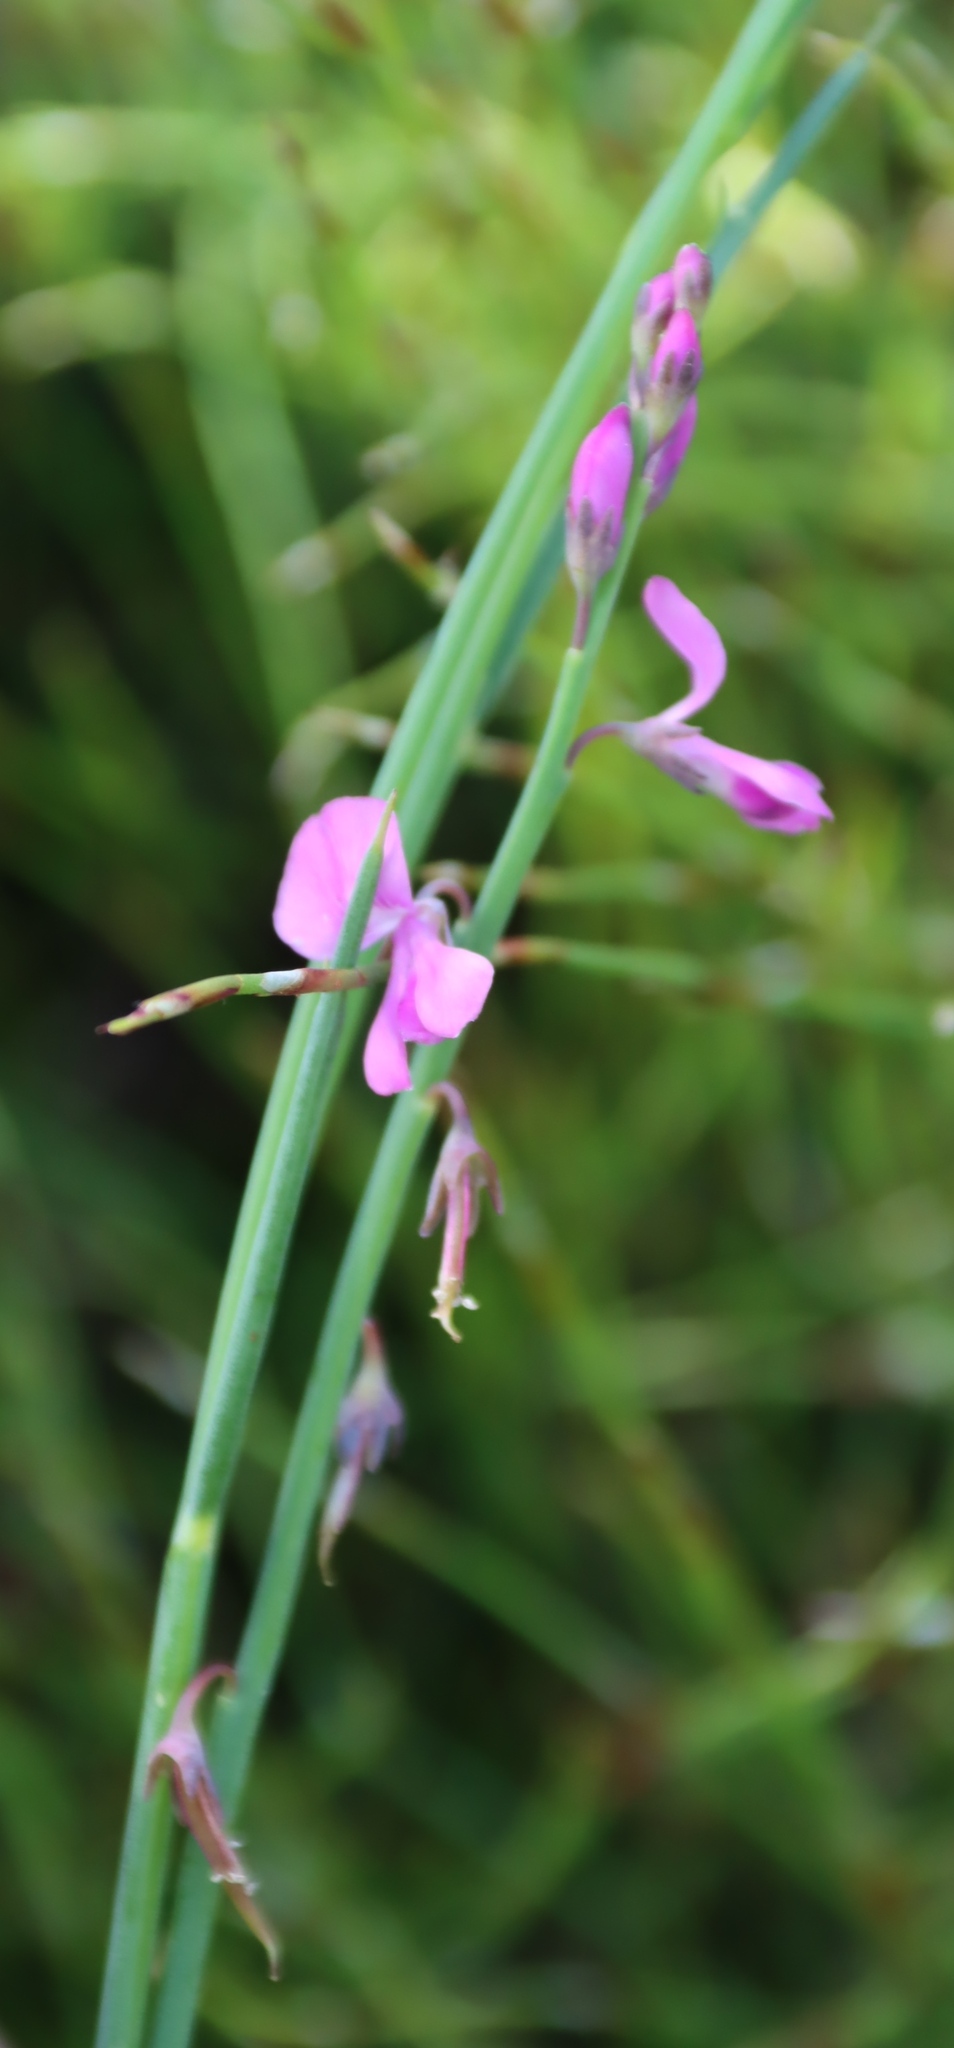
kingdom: Plantae
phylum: Tracheophyta
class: Magnoliopsida
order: Fabales
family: Fabaceae
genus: Indigofera
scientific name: Indigofera ionii
